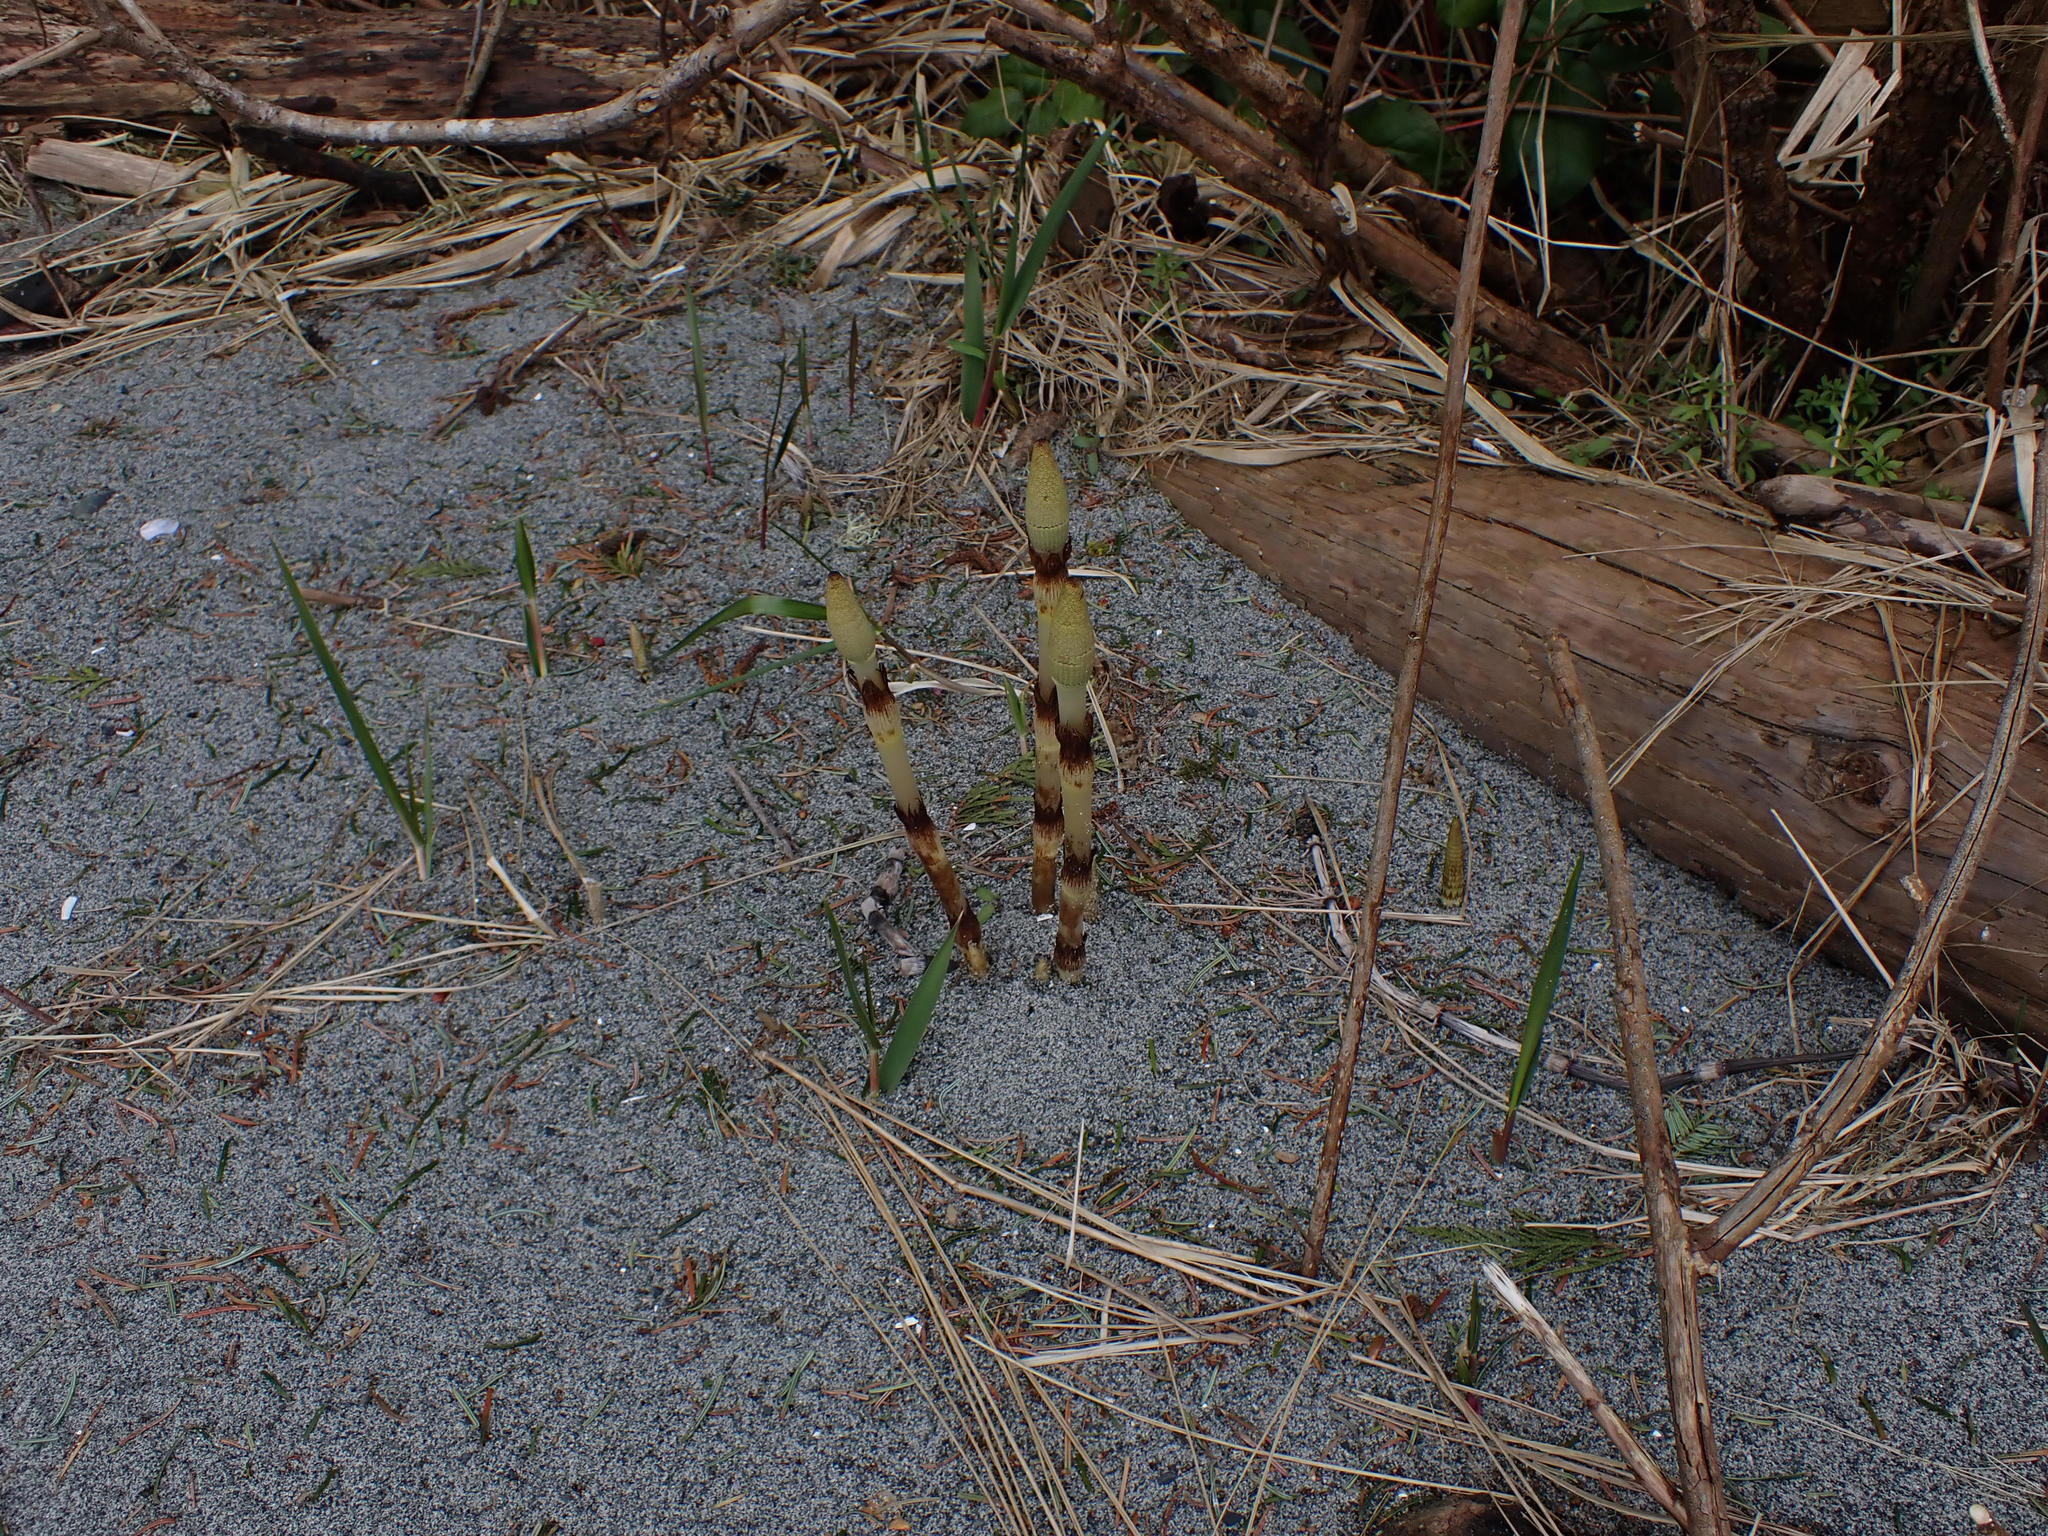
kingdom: Plantae
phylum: Tracheophyta
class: Polypodiopsida
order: Equisetales
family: Equisetaceae
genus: Equisetum
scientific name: Equisetum telmateia
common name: Great horsetail
